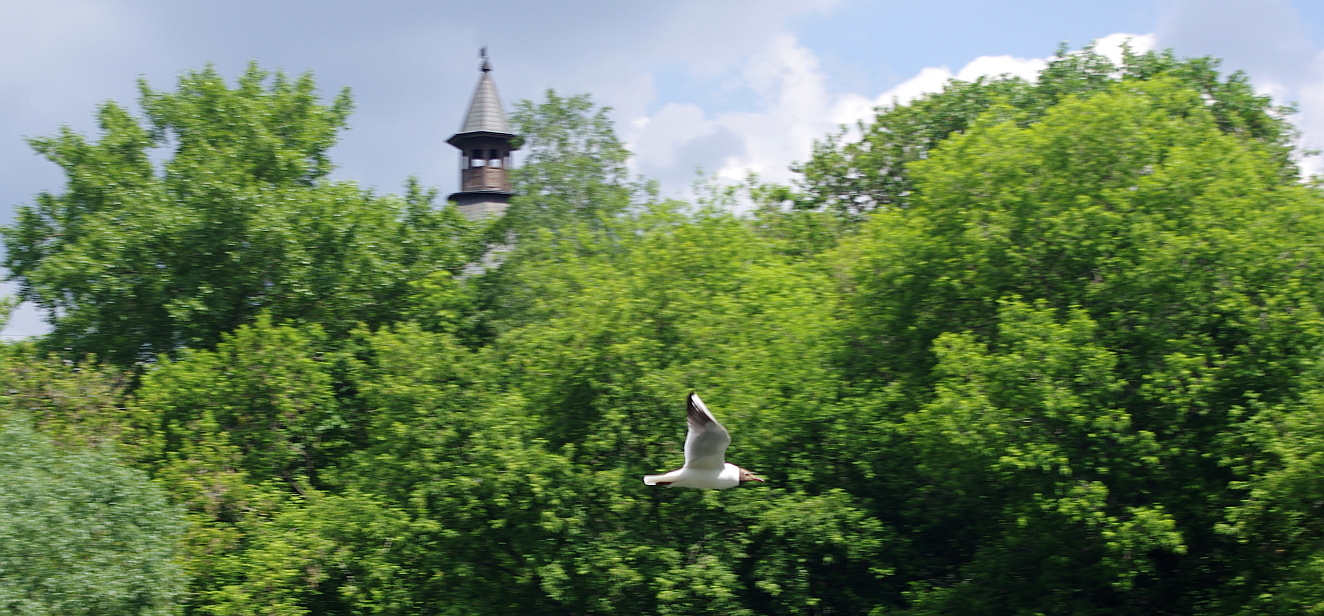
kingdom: Animalia
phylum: Chordata
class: Aves
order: Charadriiformes
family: Laridae
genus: Chroicocephalus
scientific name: Chroicocephalus ridibundus
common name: Black-headed gull
